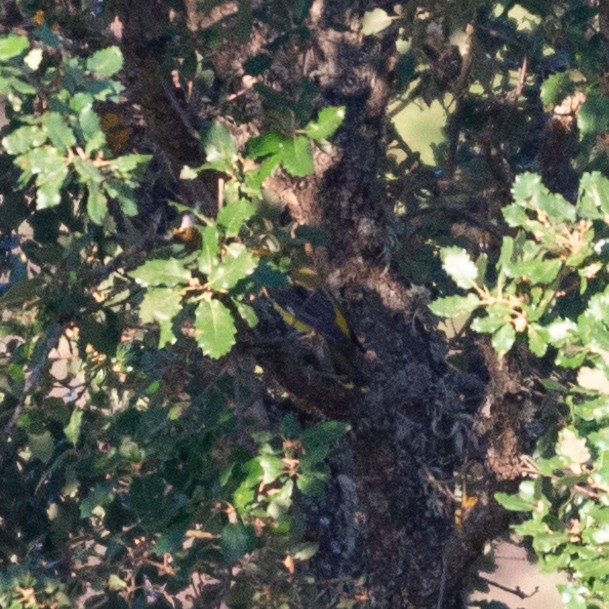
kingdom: Animalia
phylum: Chordata
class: Aves
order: Passeriformes
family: Oriolidae
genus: Oriolus
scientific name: Oriolus oriolus
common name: Eurasian golden oriole
